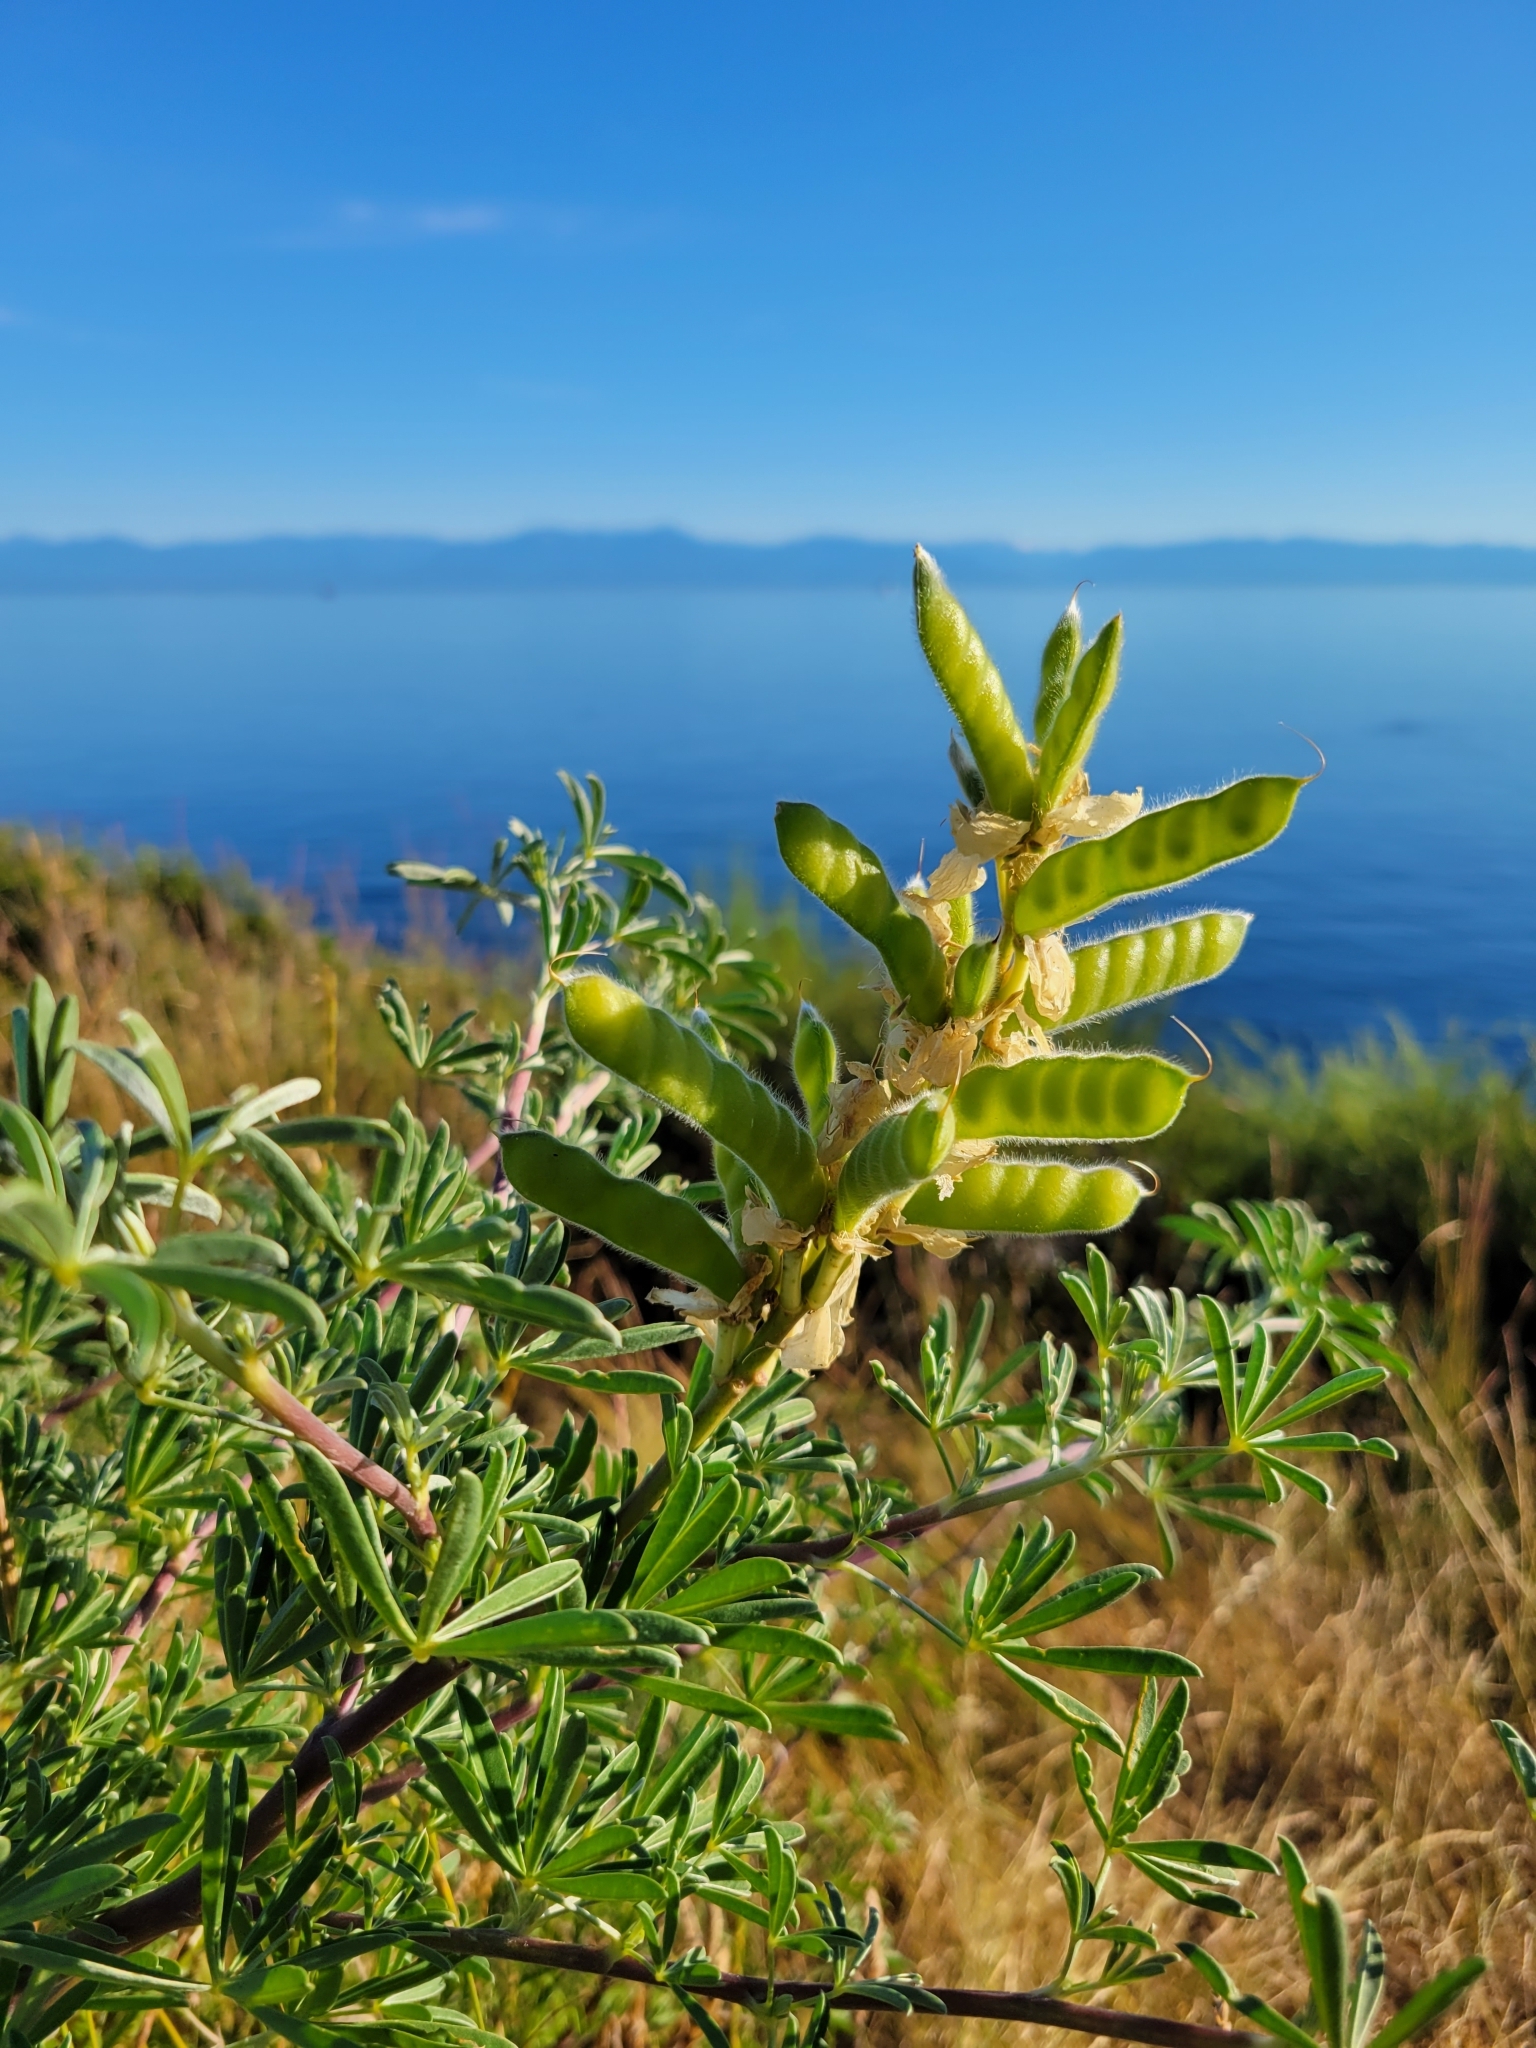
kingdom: Plantae
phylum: Tracheophyta
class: Magnoliopsida
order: Fabales
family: Fabaceae
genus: Lupinus
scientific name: Lupinus arboreus
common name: Yellow bush lupine
